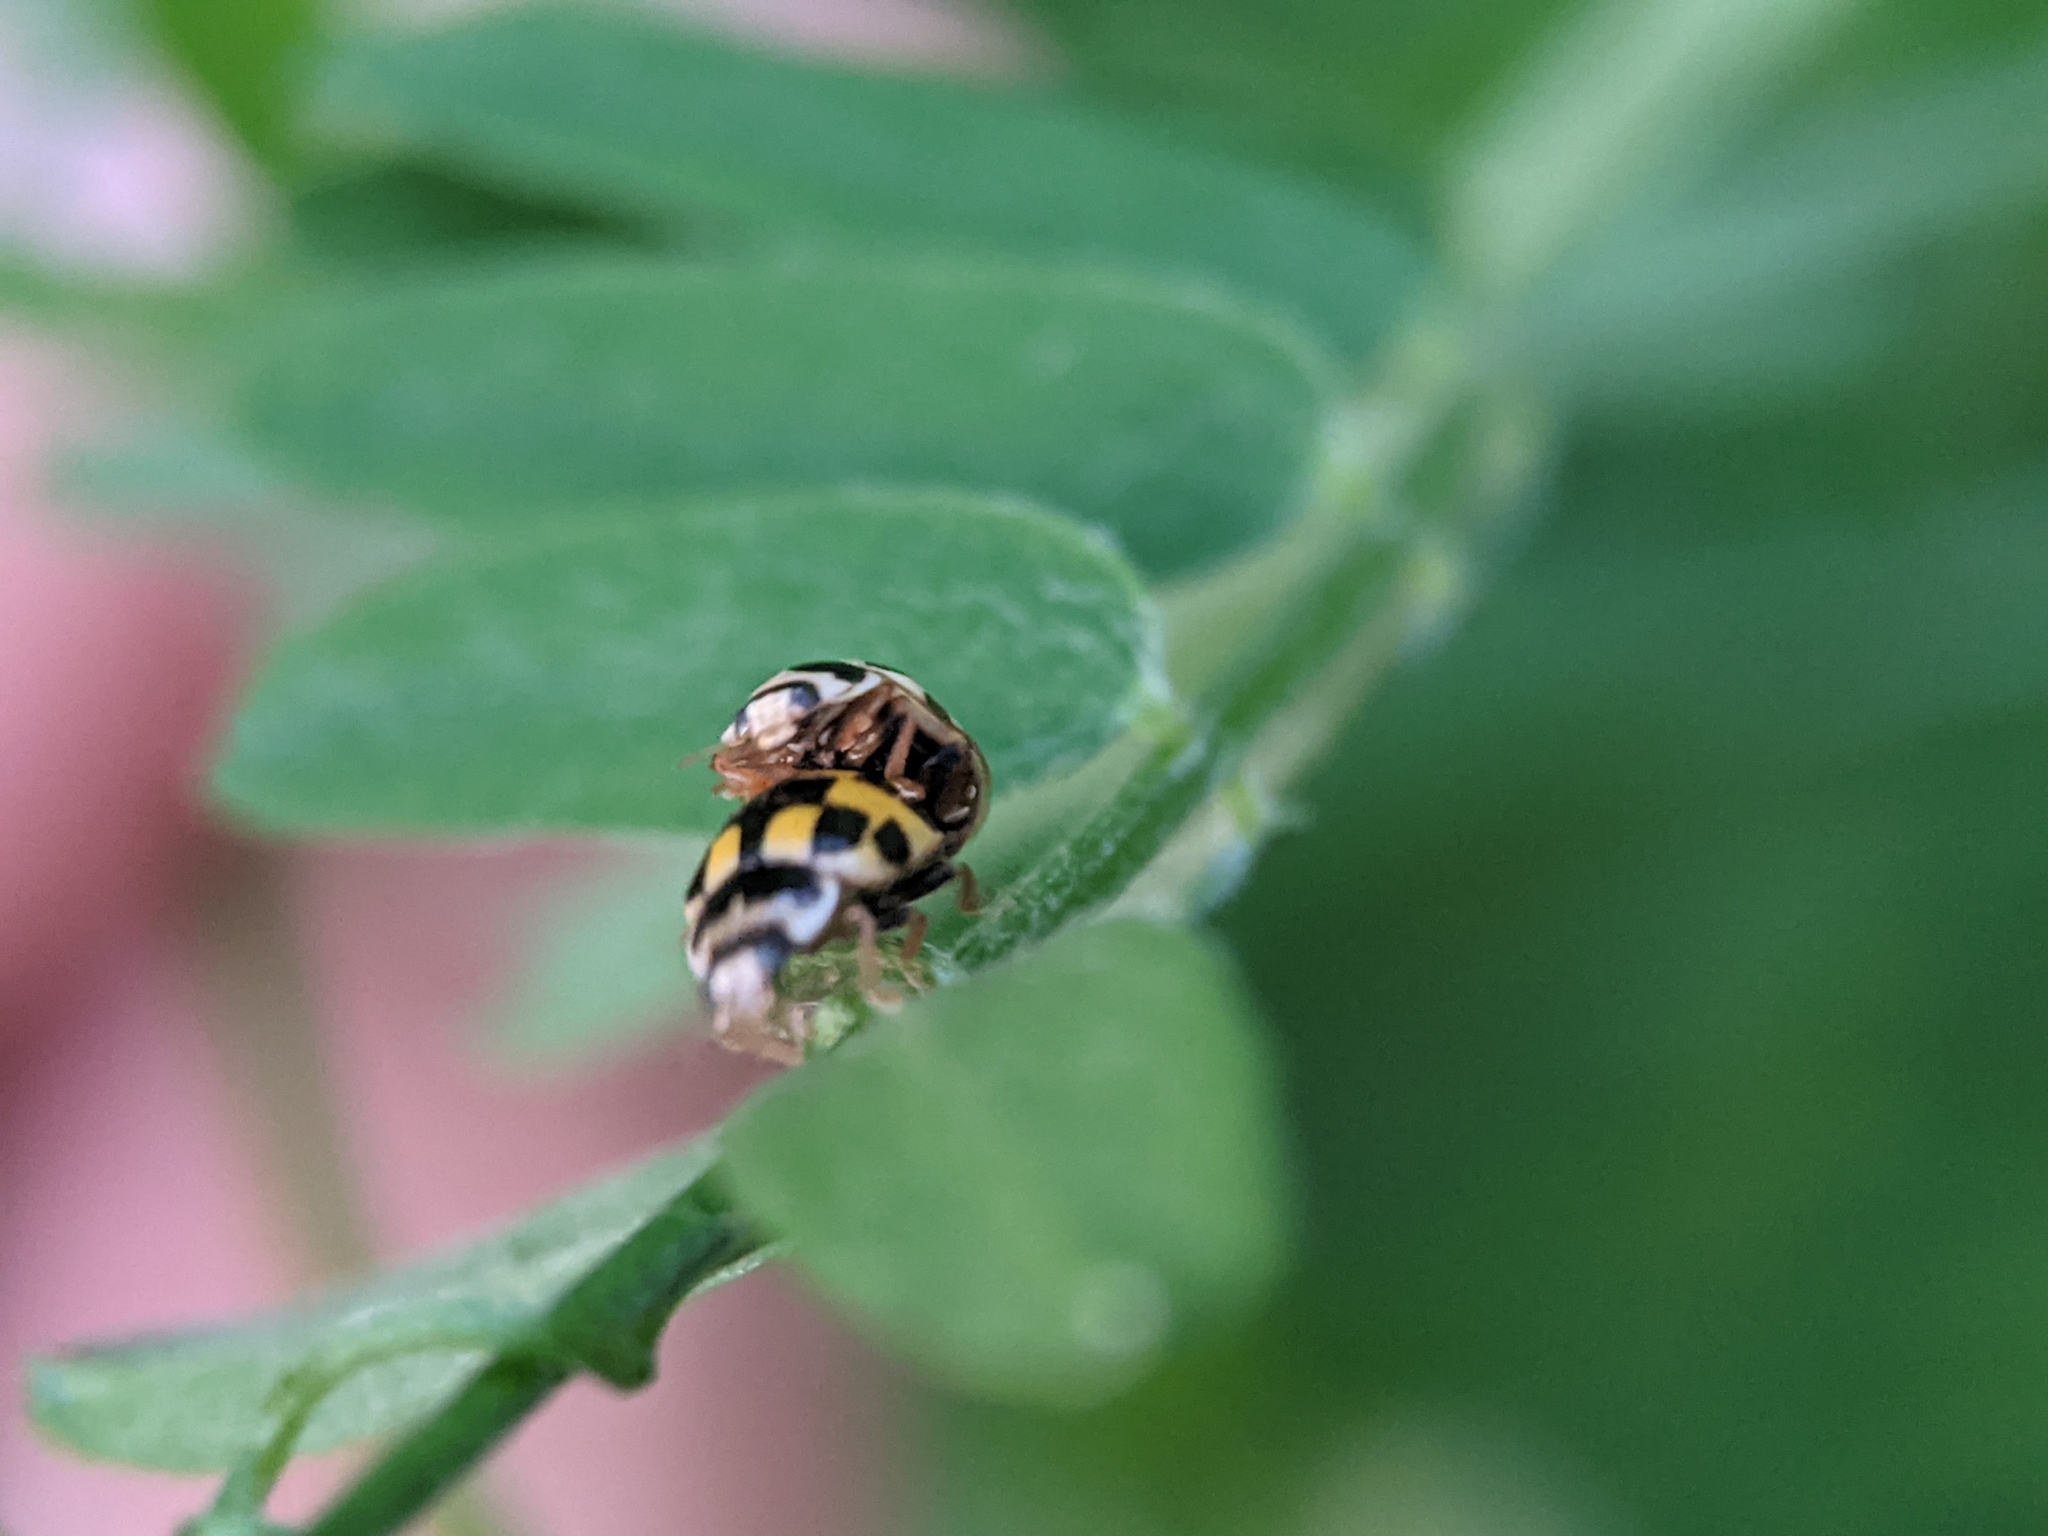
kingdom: Animalia
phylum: Arthropoda
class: Insecta
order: Coleoptera
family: Coccinellidae
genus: Propylaea
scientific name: Propylaea quatuordecimpunctata
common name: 14-spotted ladybird beetle
